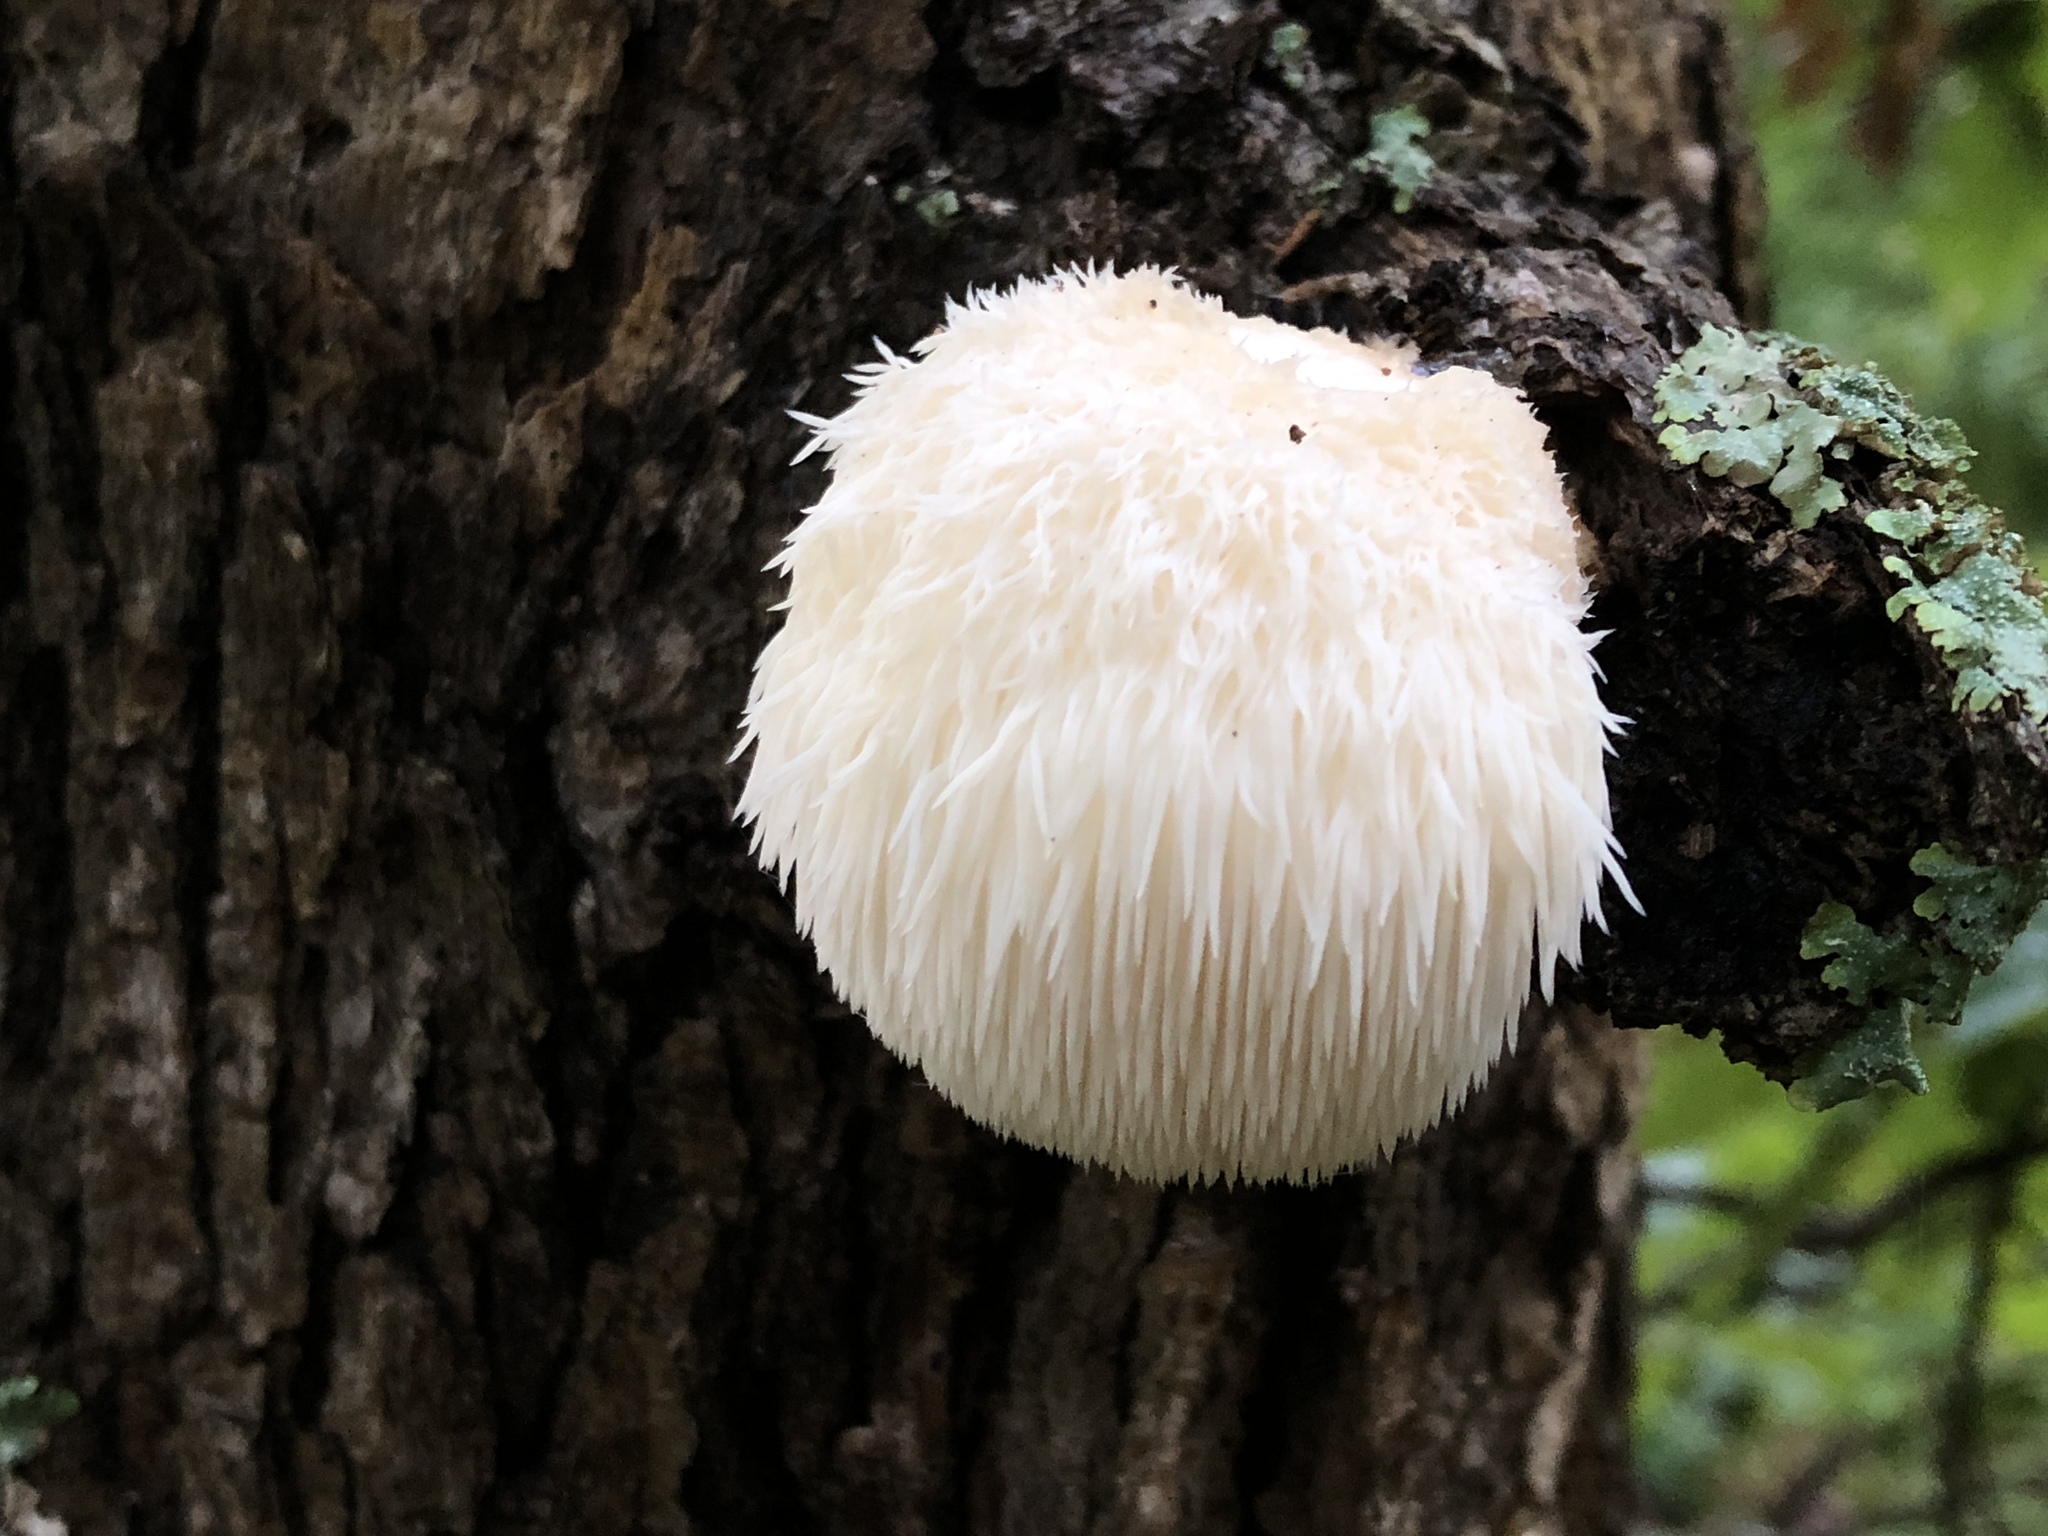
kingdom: Fungi
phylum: Basidiomycota
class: Agaricomycetes
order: Russulales
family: Hericiaceae
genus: Hericium
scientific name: Hericium erinaceus
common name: Bearded tooth
